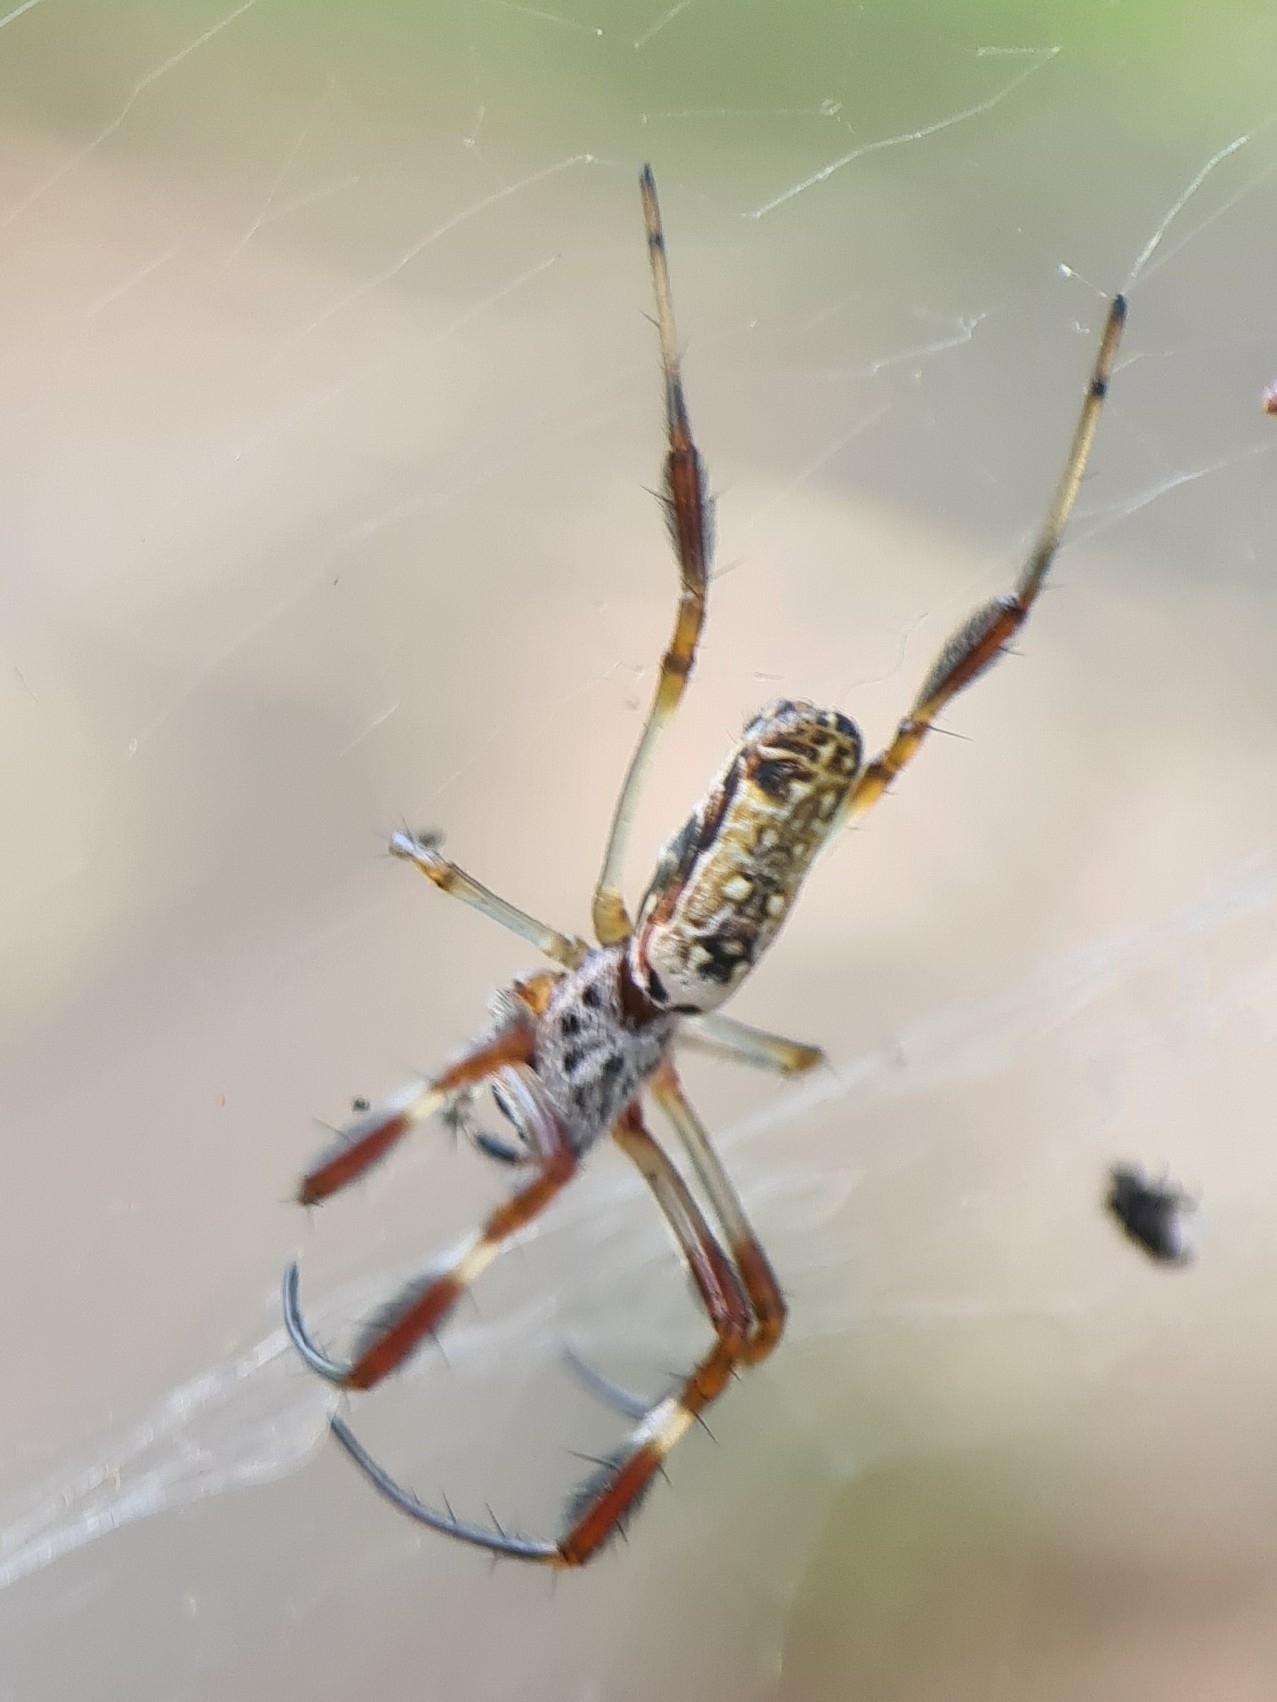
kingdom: Animalia
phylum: Arthropoda
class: Arachnida
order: Araneae
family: Araneidae
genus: Trichonephila
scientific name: Trichonephila edulis
